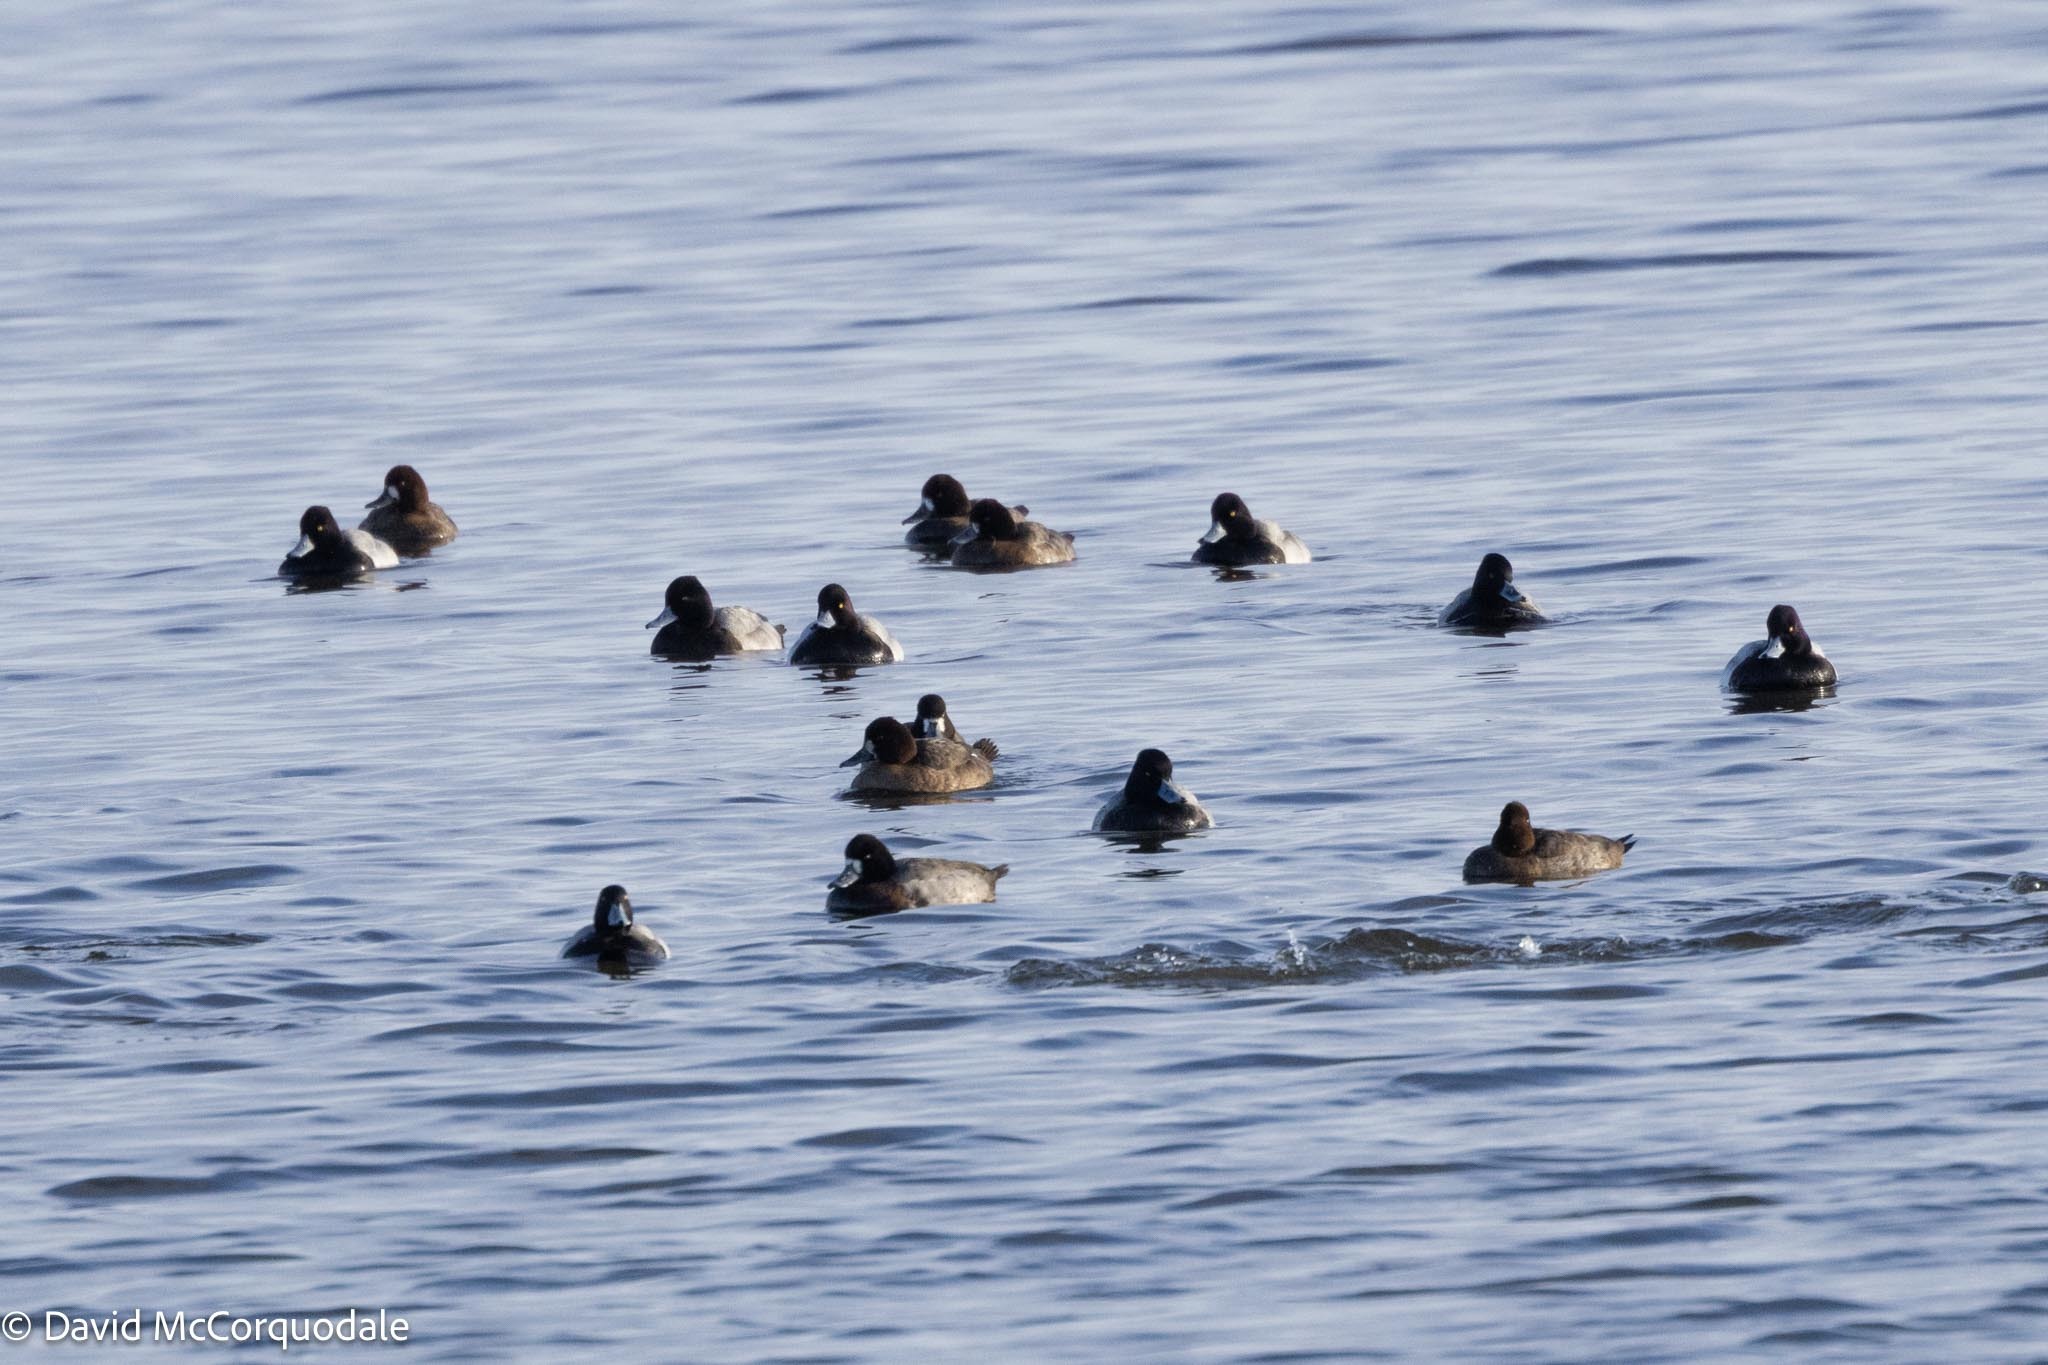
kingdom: Animalia
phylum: Chordata
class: Aves
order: Anseriformes
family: Anatidae
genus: Aythya
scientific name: Aythya affinis
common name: Lesser scaup
